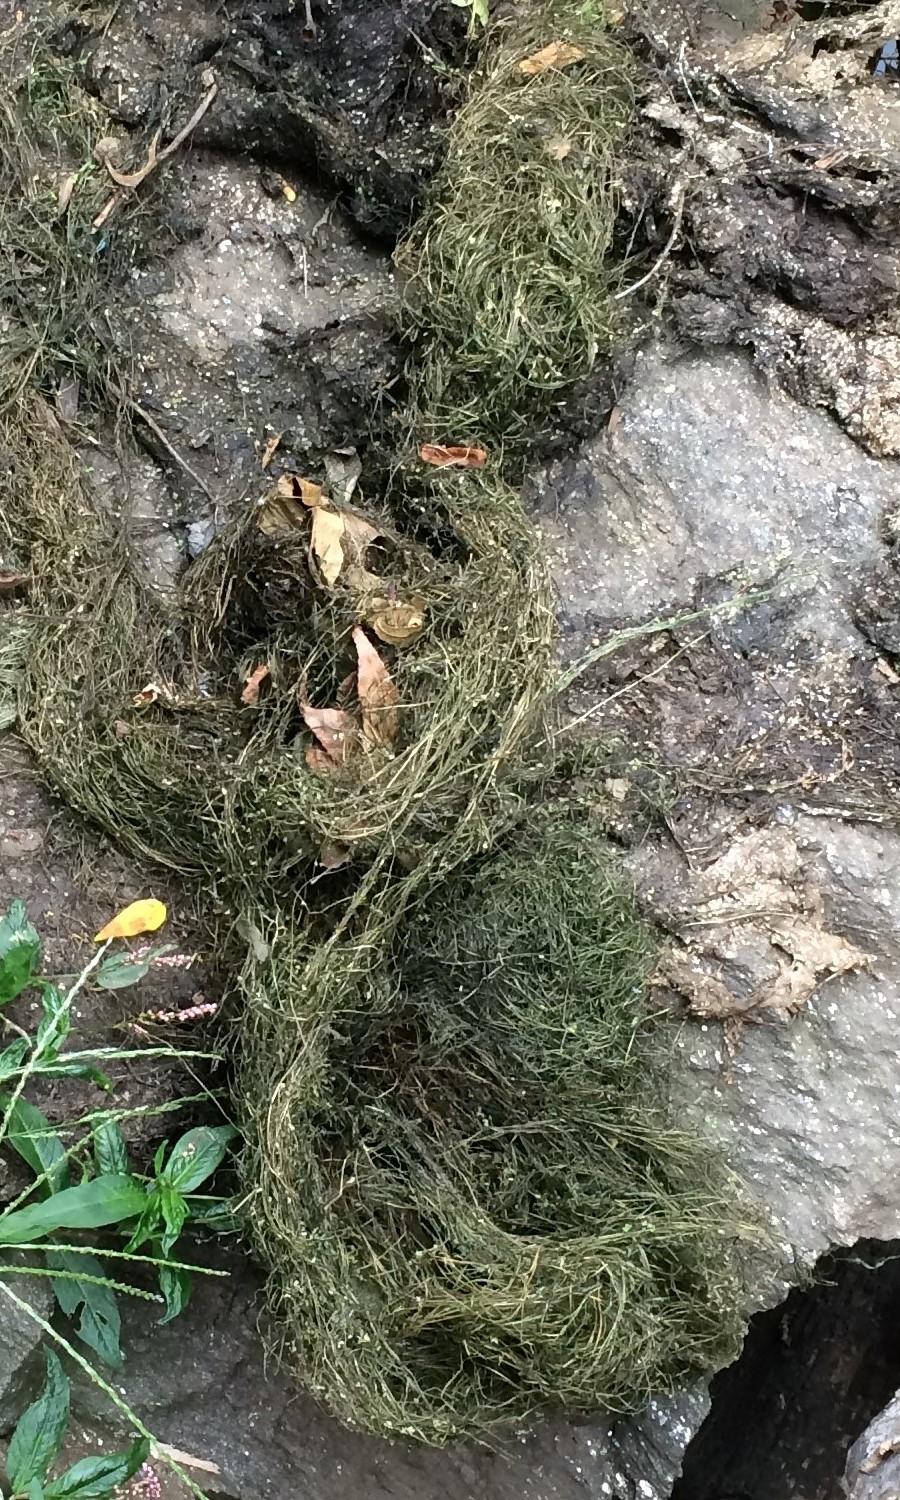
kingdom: Plantae
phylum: Tracheophyta
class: Liliopsida
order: Alismatales
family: Potamogetonaceae
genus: Potamogeton
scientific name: Potamogeton foliosus
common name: Leafy pondweed
